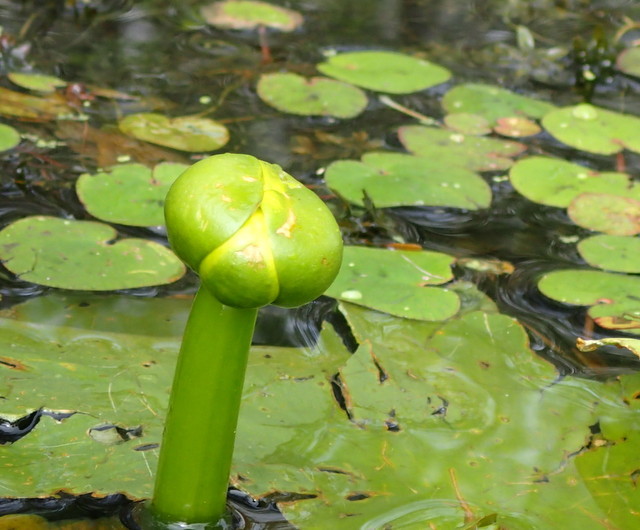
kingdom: Plantae
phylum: Tracheophyta
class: Magnoliopsida
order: Nymphaeales
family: Nymphaeaceae
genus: Nuphar
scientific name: Nuphar advena
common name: Spatter-dock
